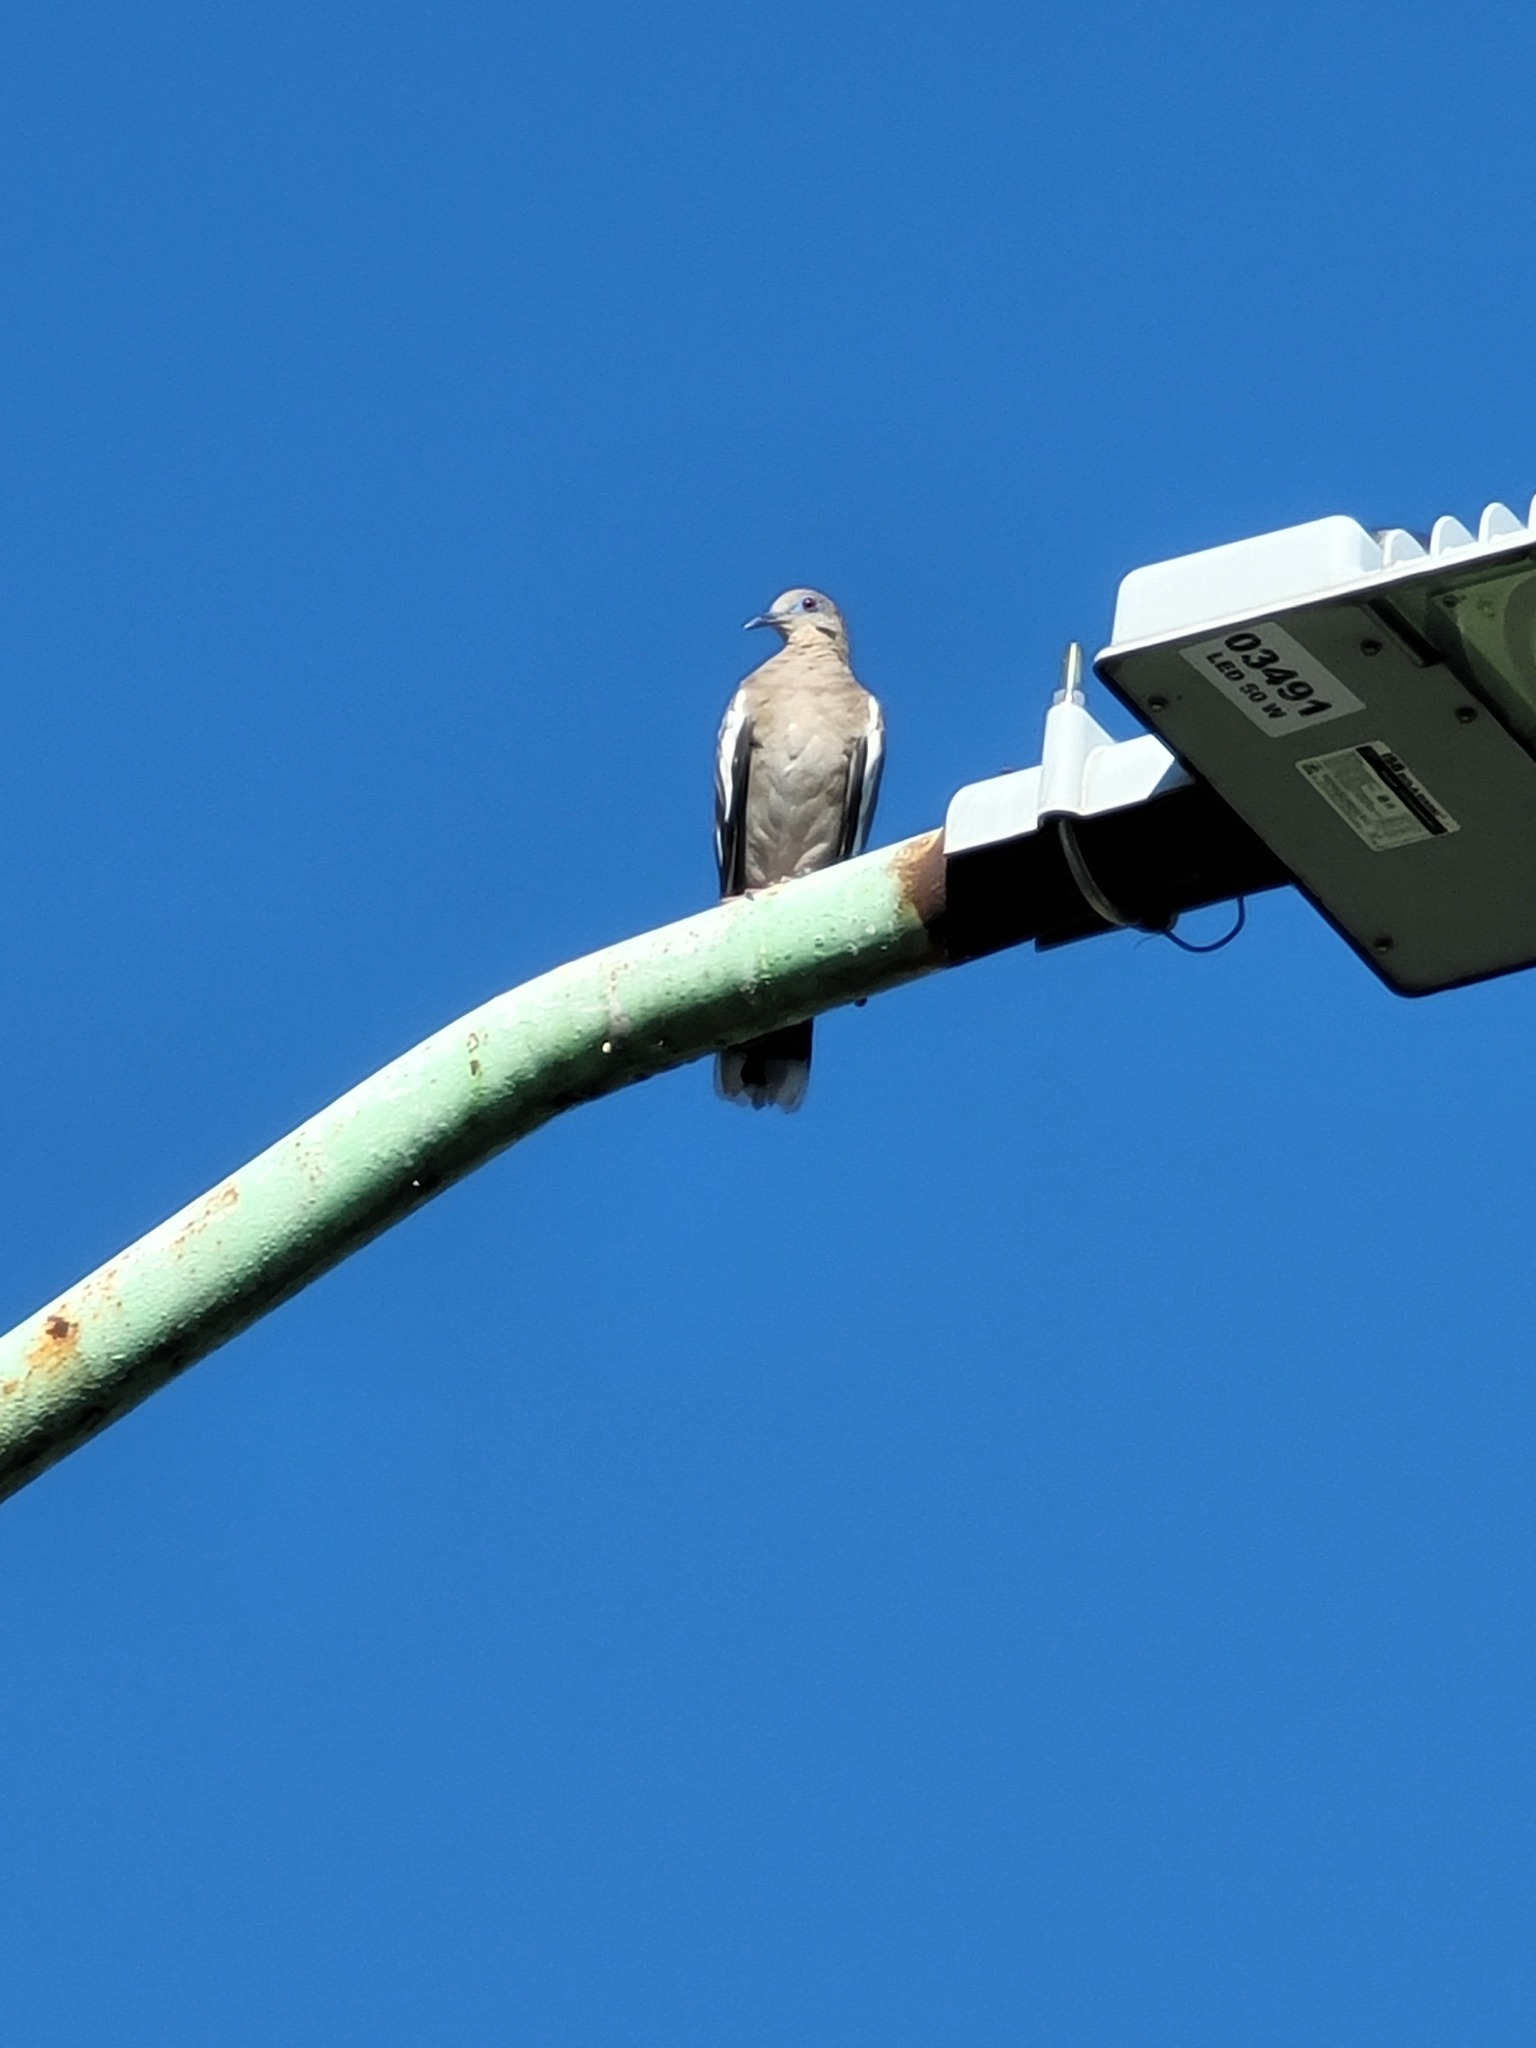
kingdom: Animalia
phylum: Chordata
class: Aves
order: Columbiformes
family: Columbidae
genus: Zenaida
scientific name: Zenaida asiatica
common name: White-winged dove
